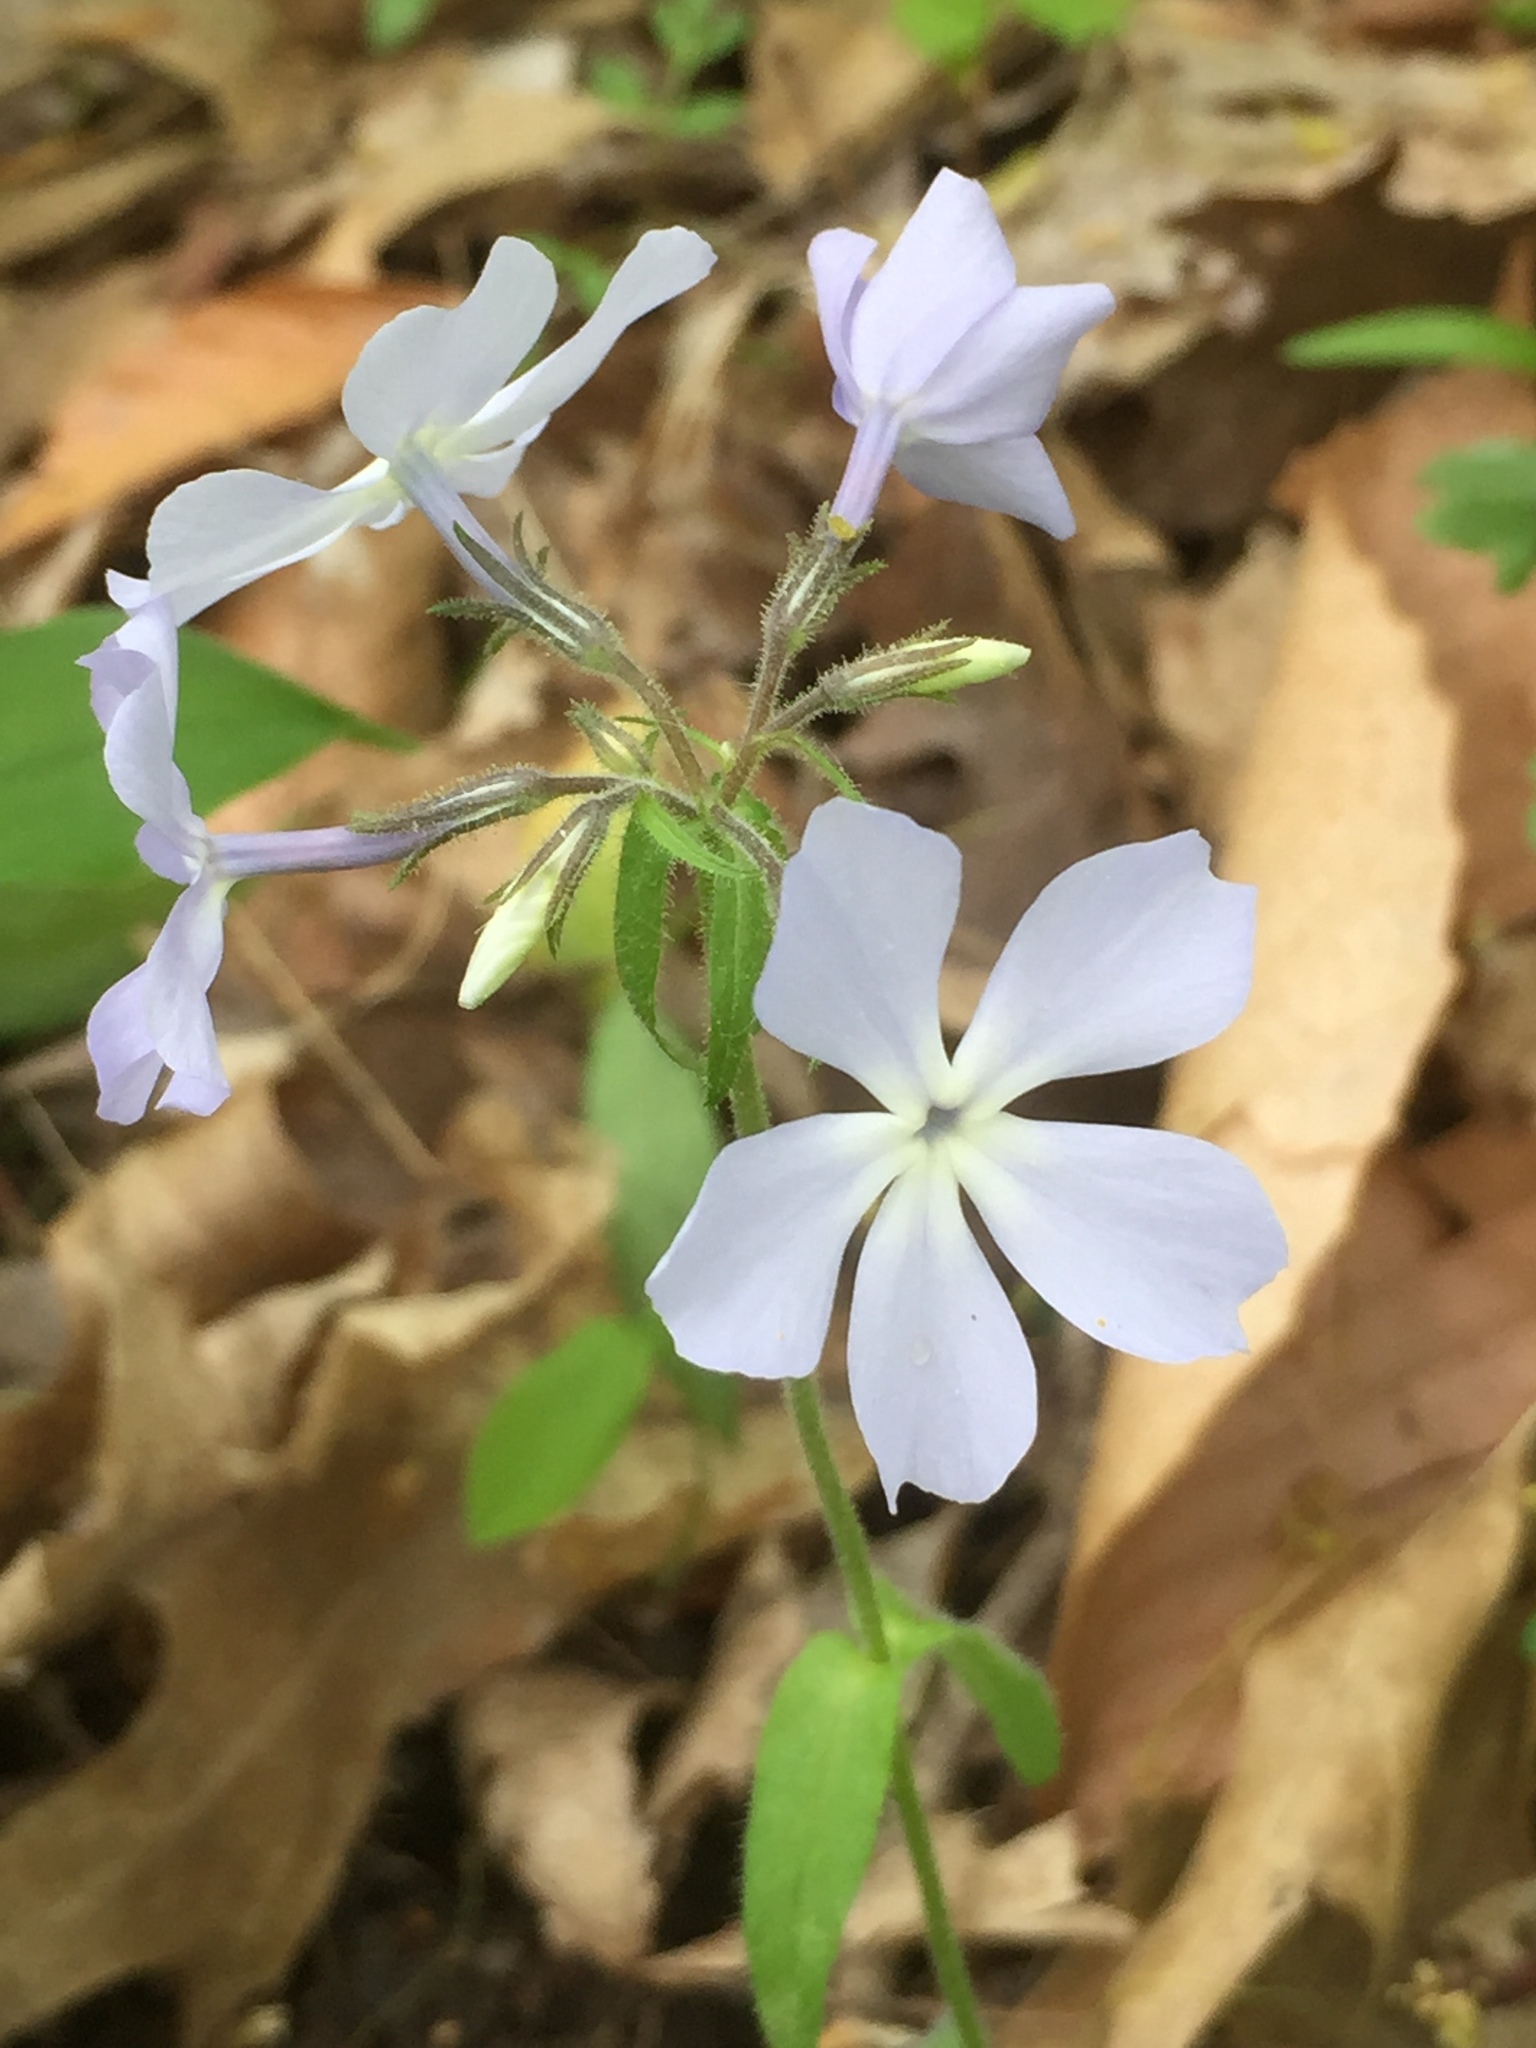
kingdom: Plantae
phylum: Tracheophyta
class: Magnoliopsida
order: Ericales
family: Polemoniaceae
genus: Phlox
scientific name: Phlox divaricata
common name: Blue phlox
